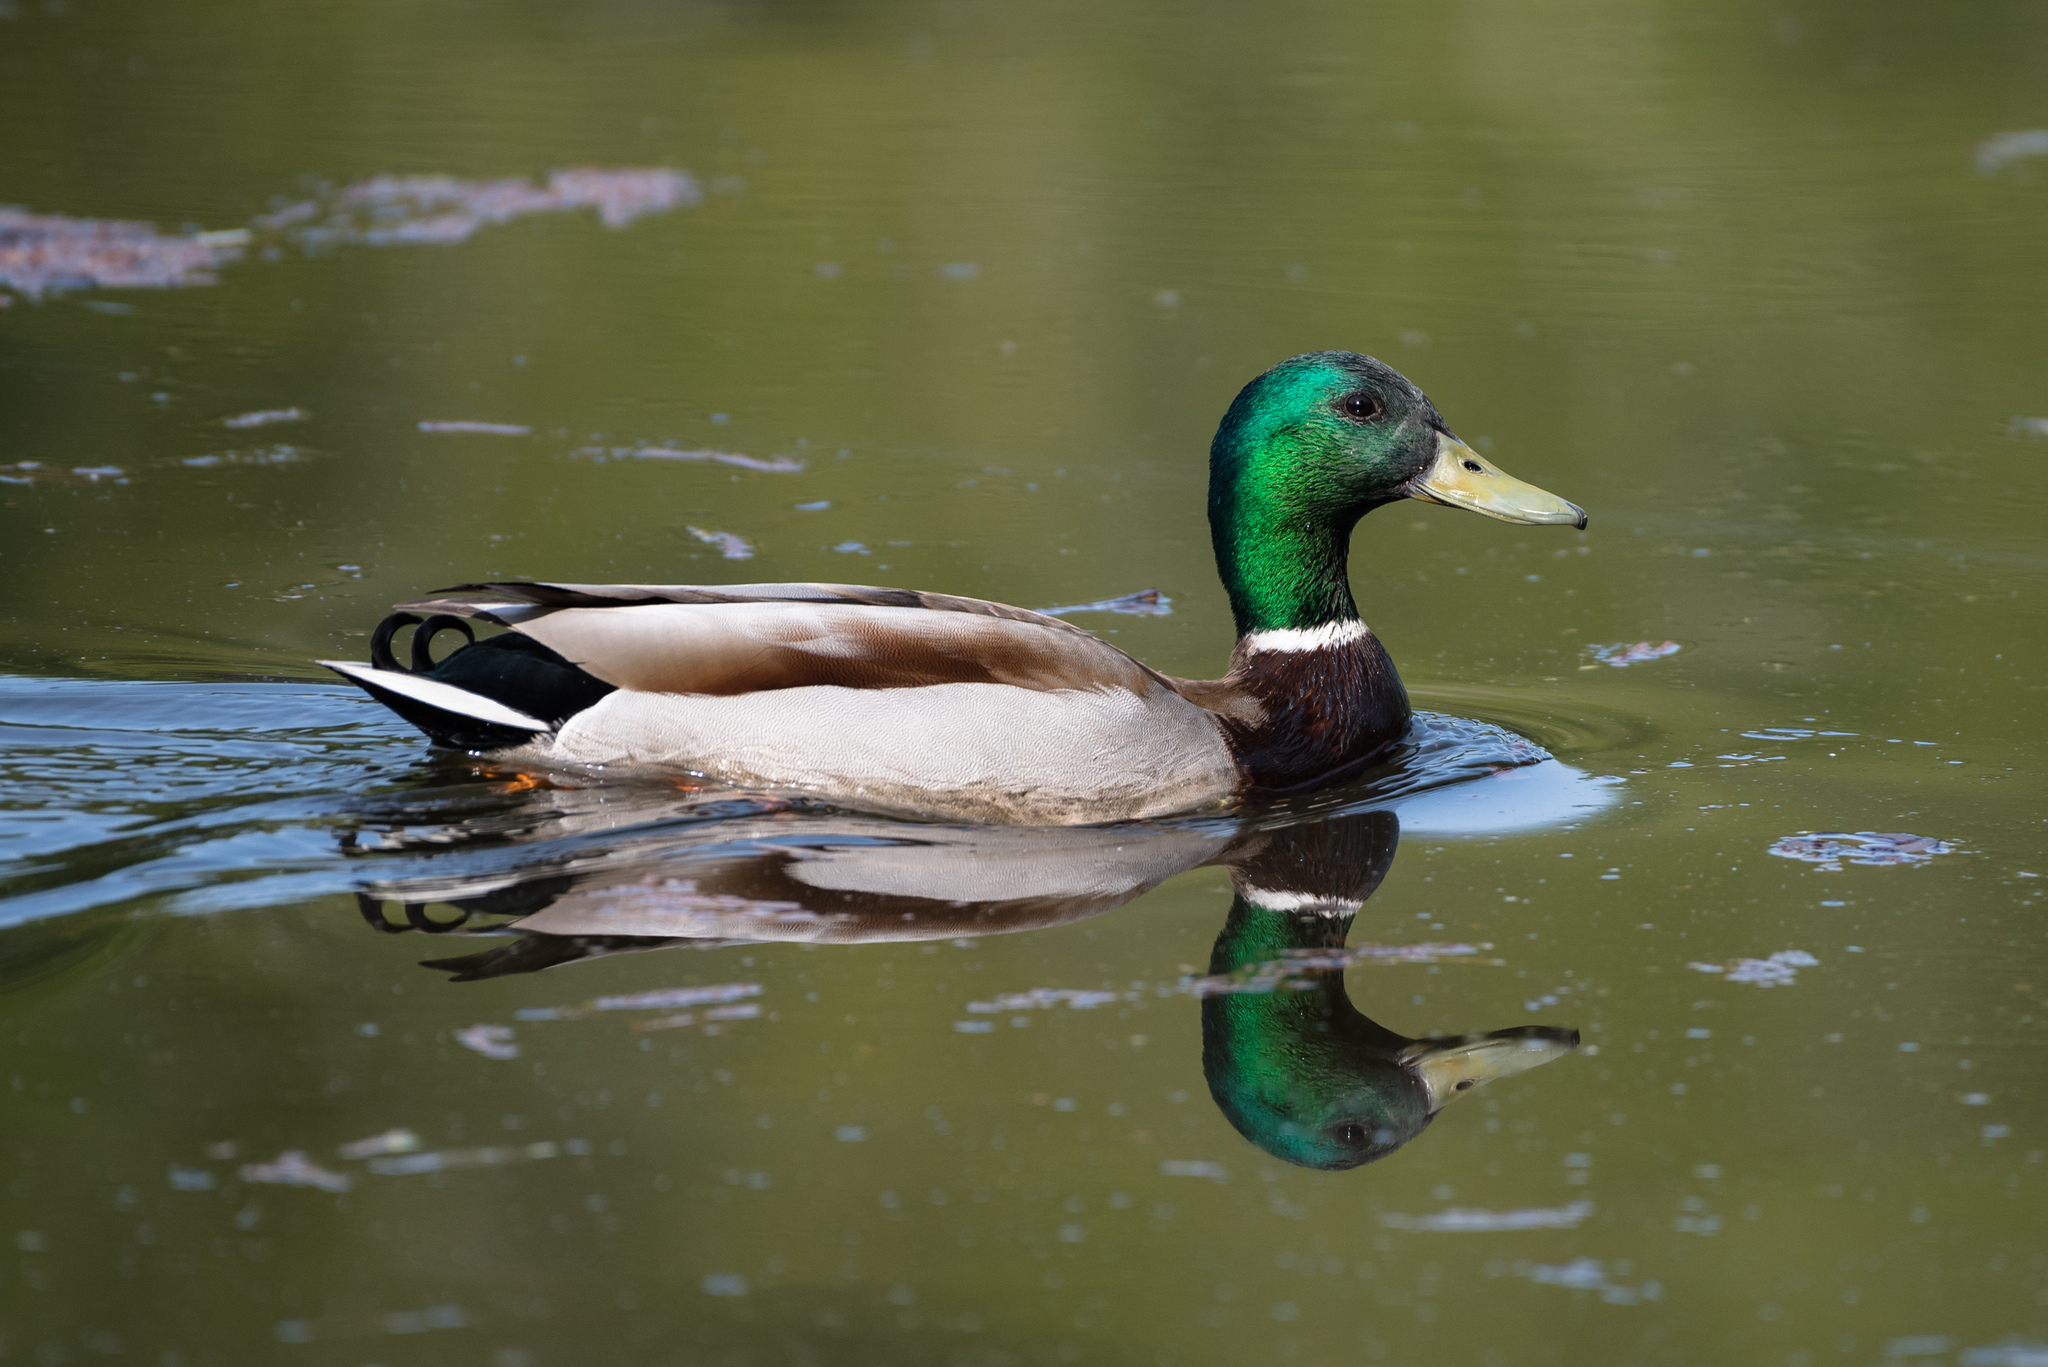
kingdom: Animalia
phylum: Chordata
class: Aves
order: Anseriformes
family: Anatidae
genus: Anas
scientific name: Anas platyrhynchos
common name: Mallard
